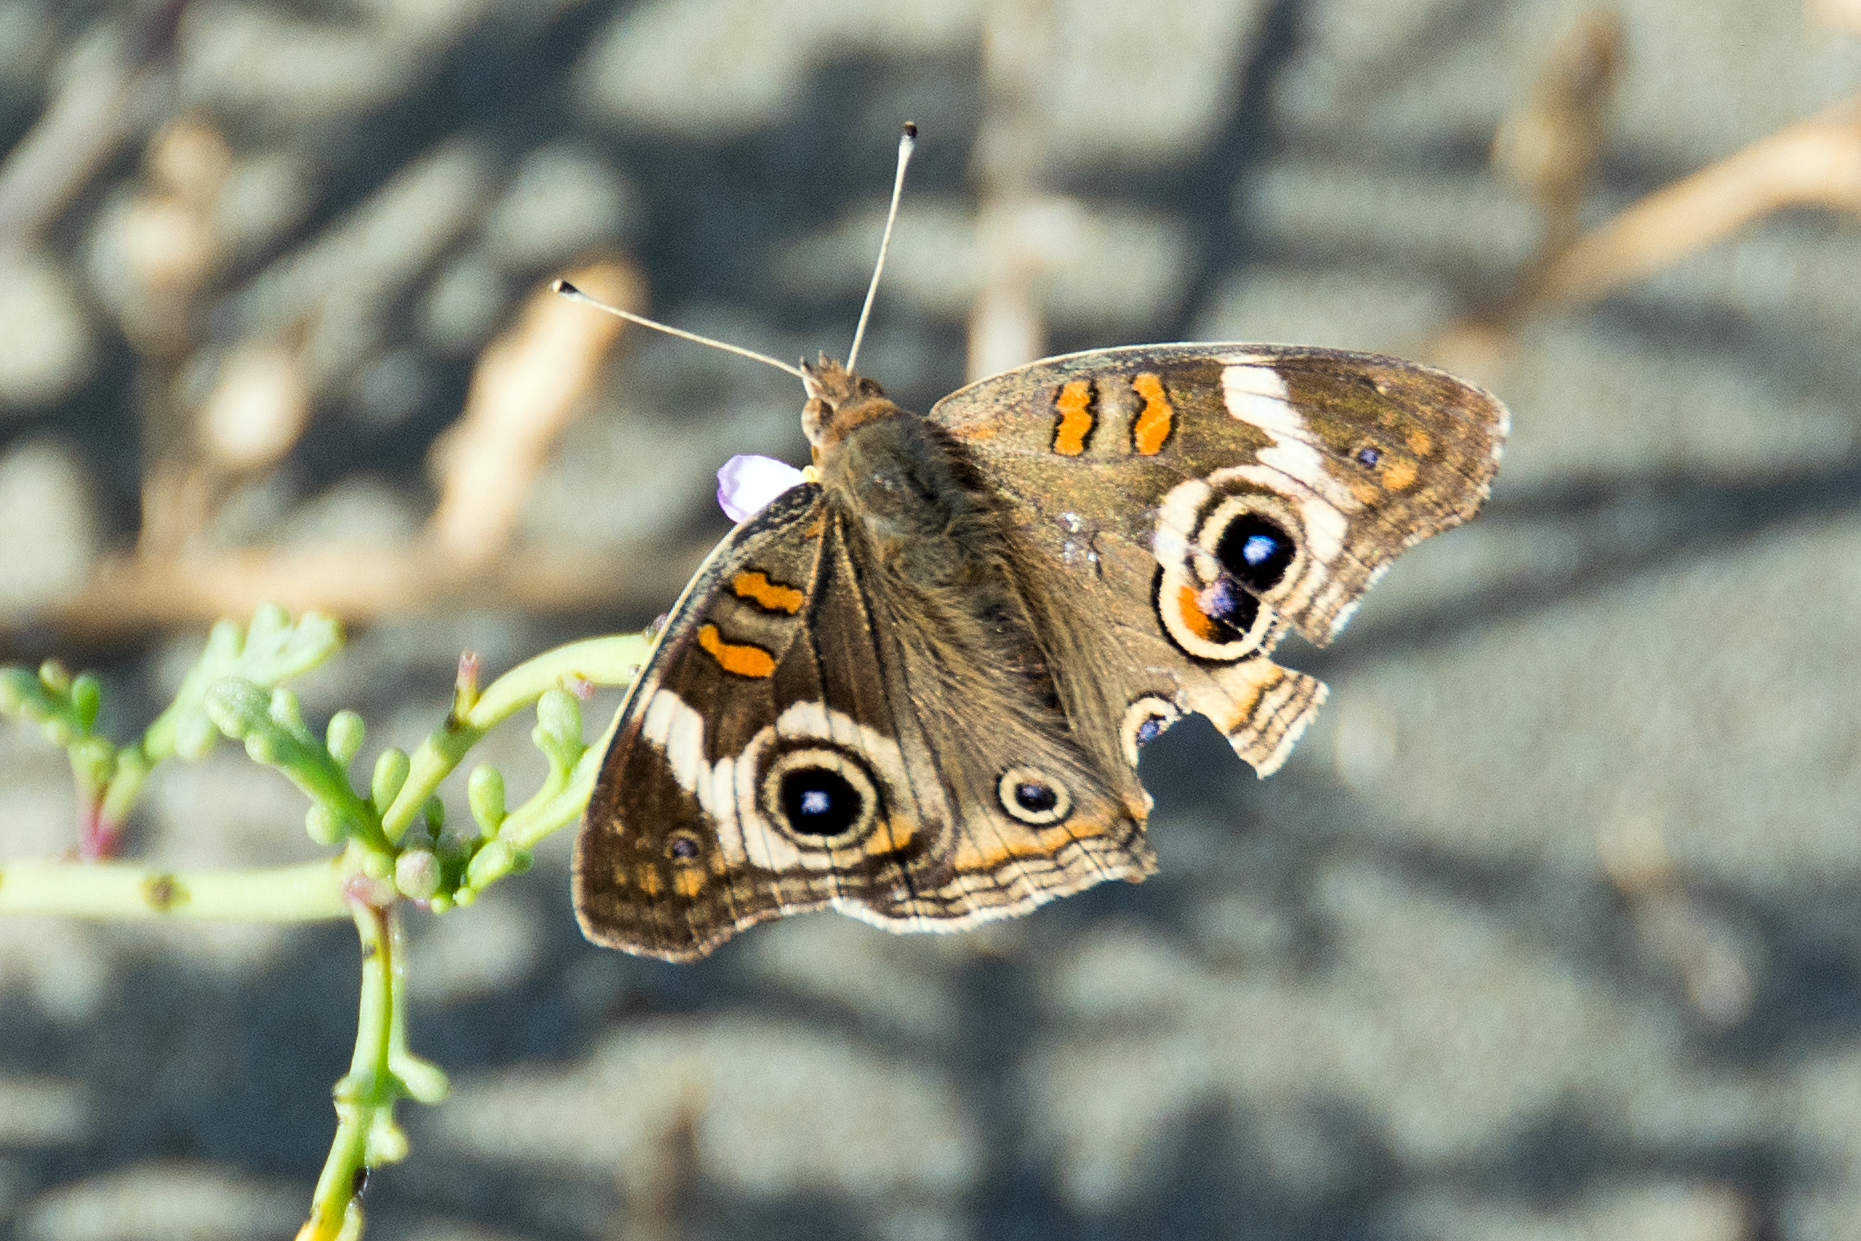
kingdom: Animalia
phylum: Arthropoda
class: Insecta
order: Lepidoptera
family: Nymphalidae
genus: Junonia
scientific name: Junonia grisea
